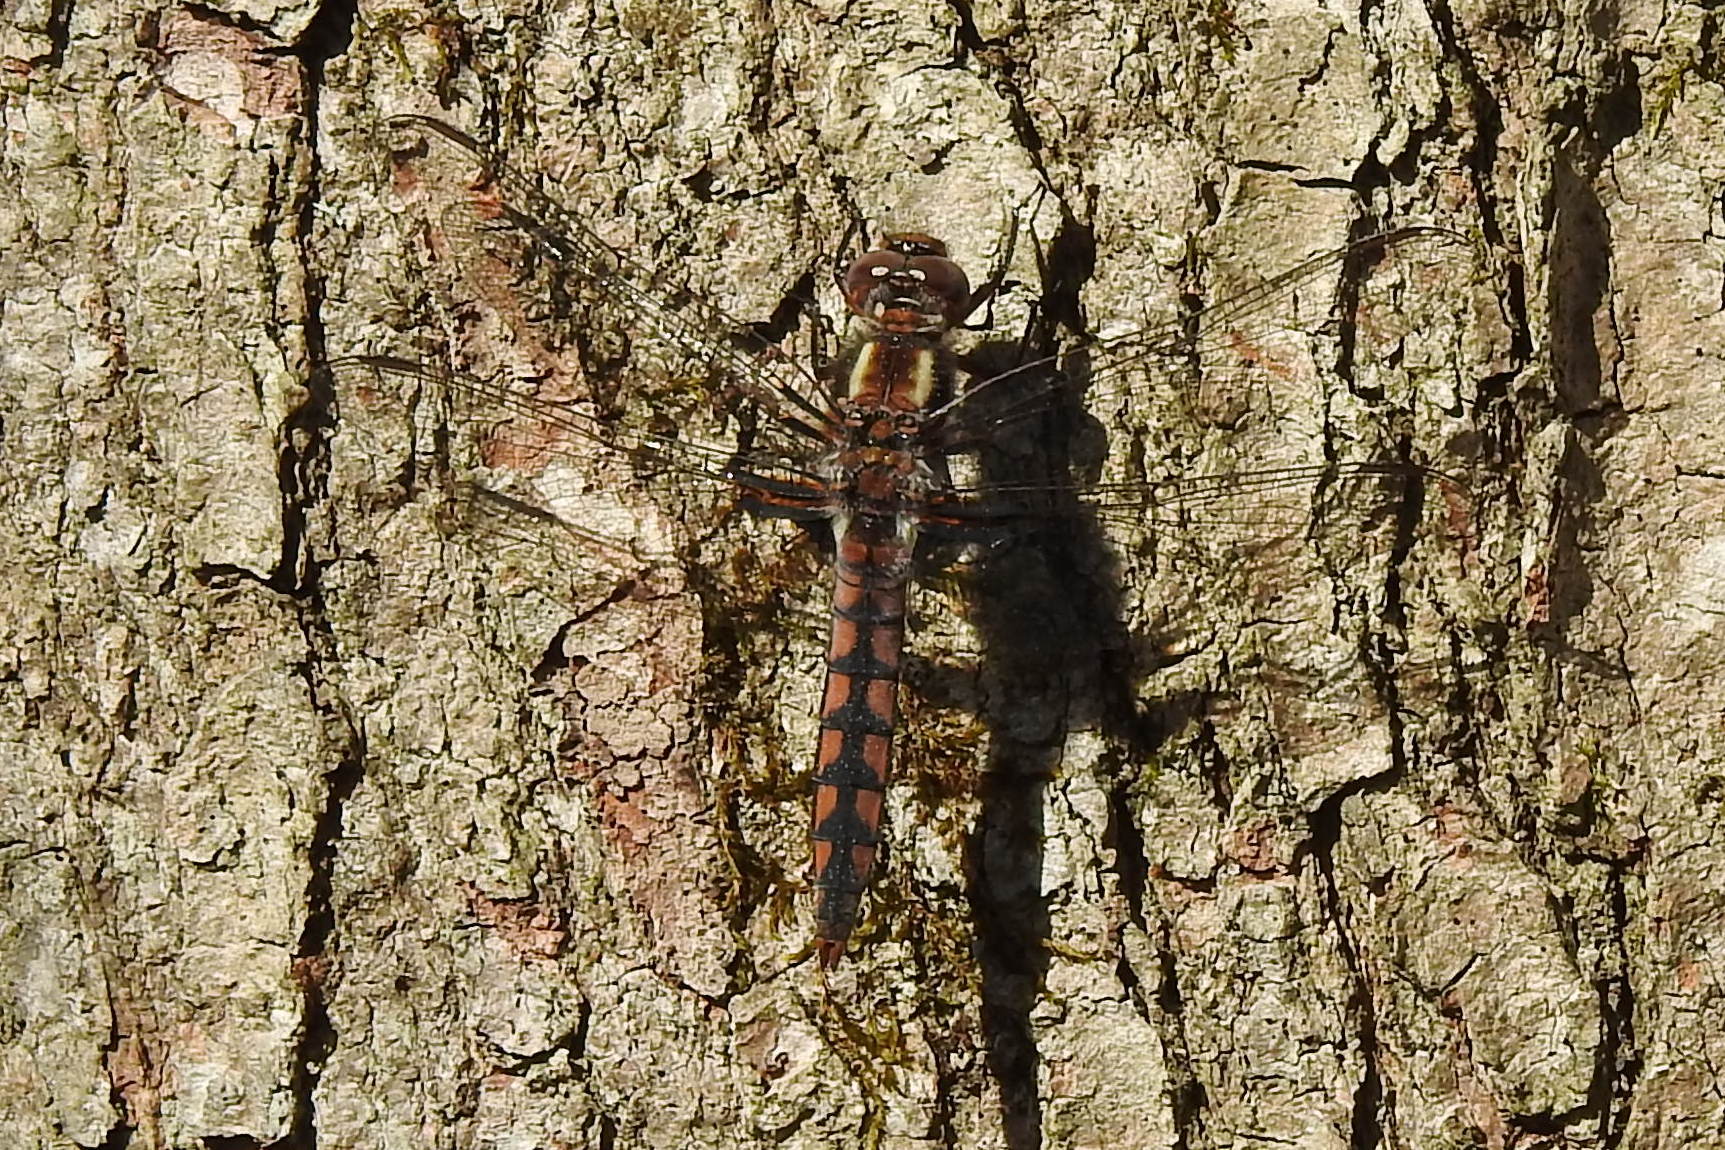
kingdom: Animalia
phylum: Arthropoda
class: Insecta
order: Odonata
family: Libellulidae
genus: Ladona
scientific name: Ladona deplanata
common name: Blue corporal
